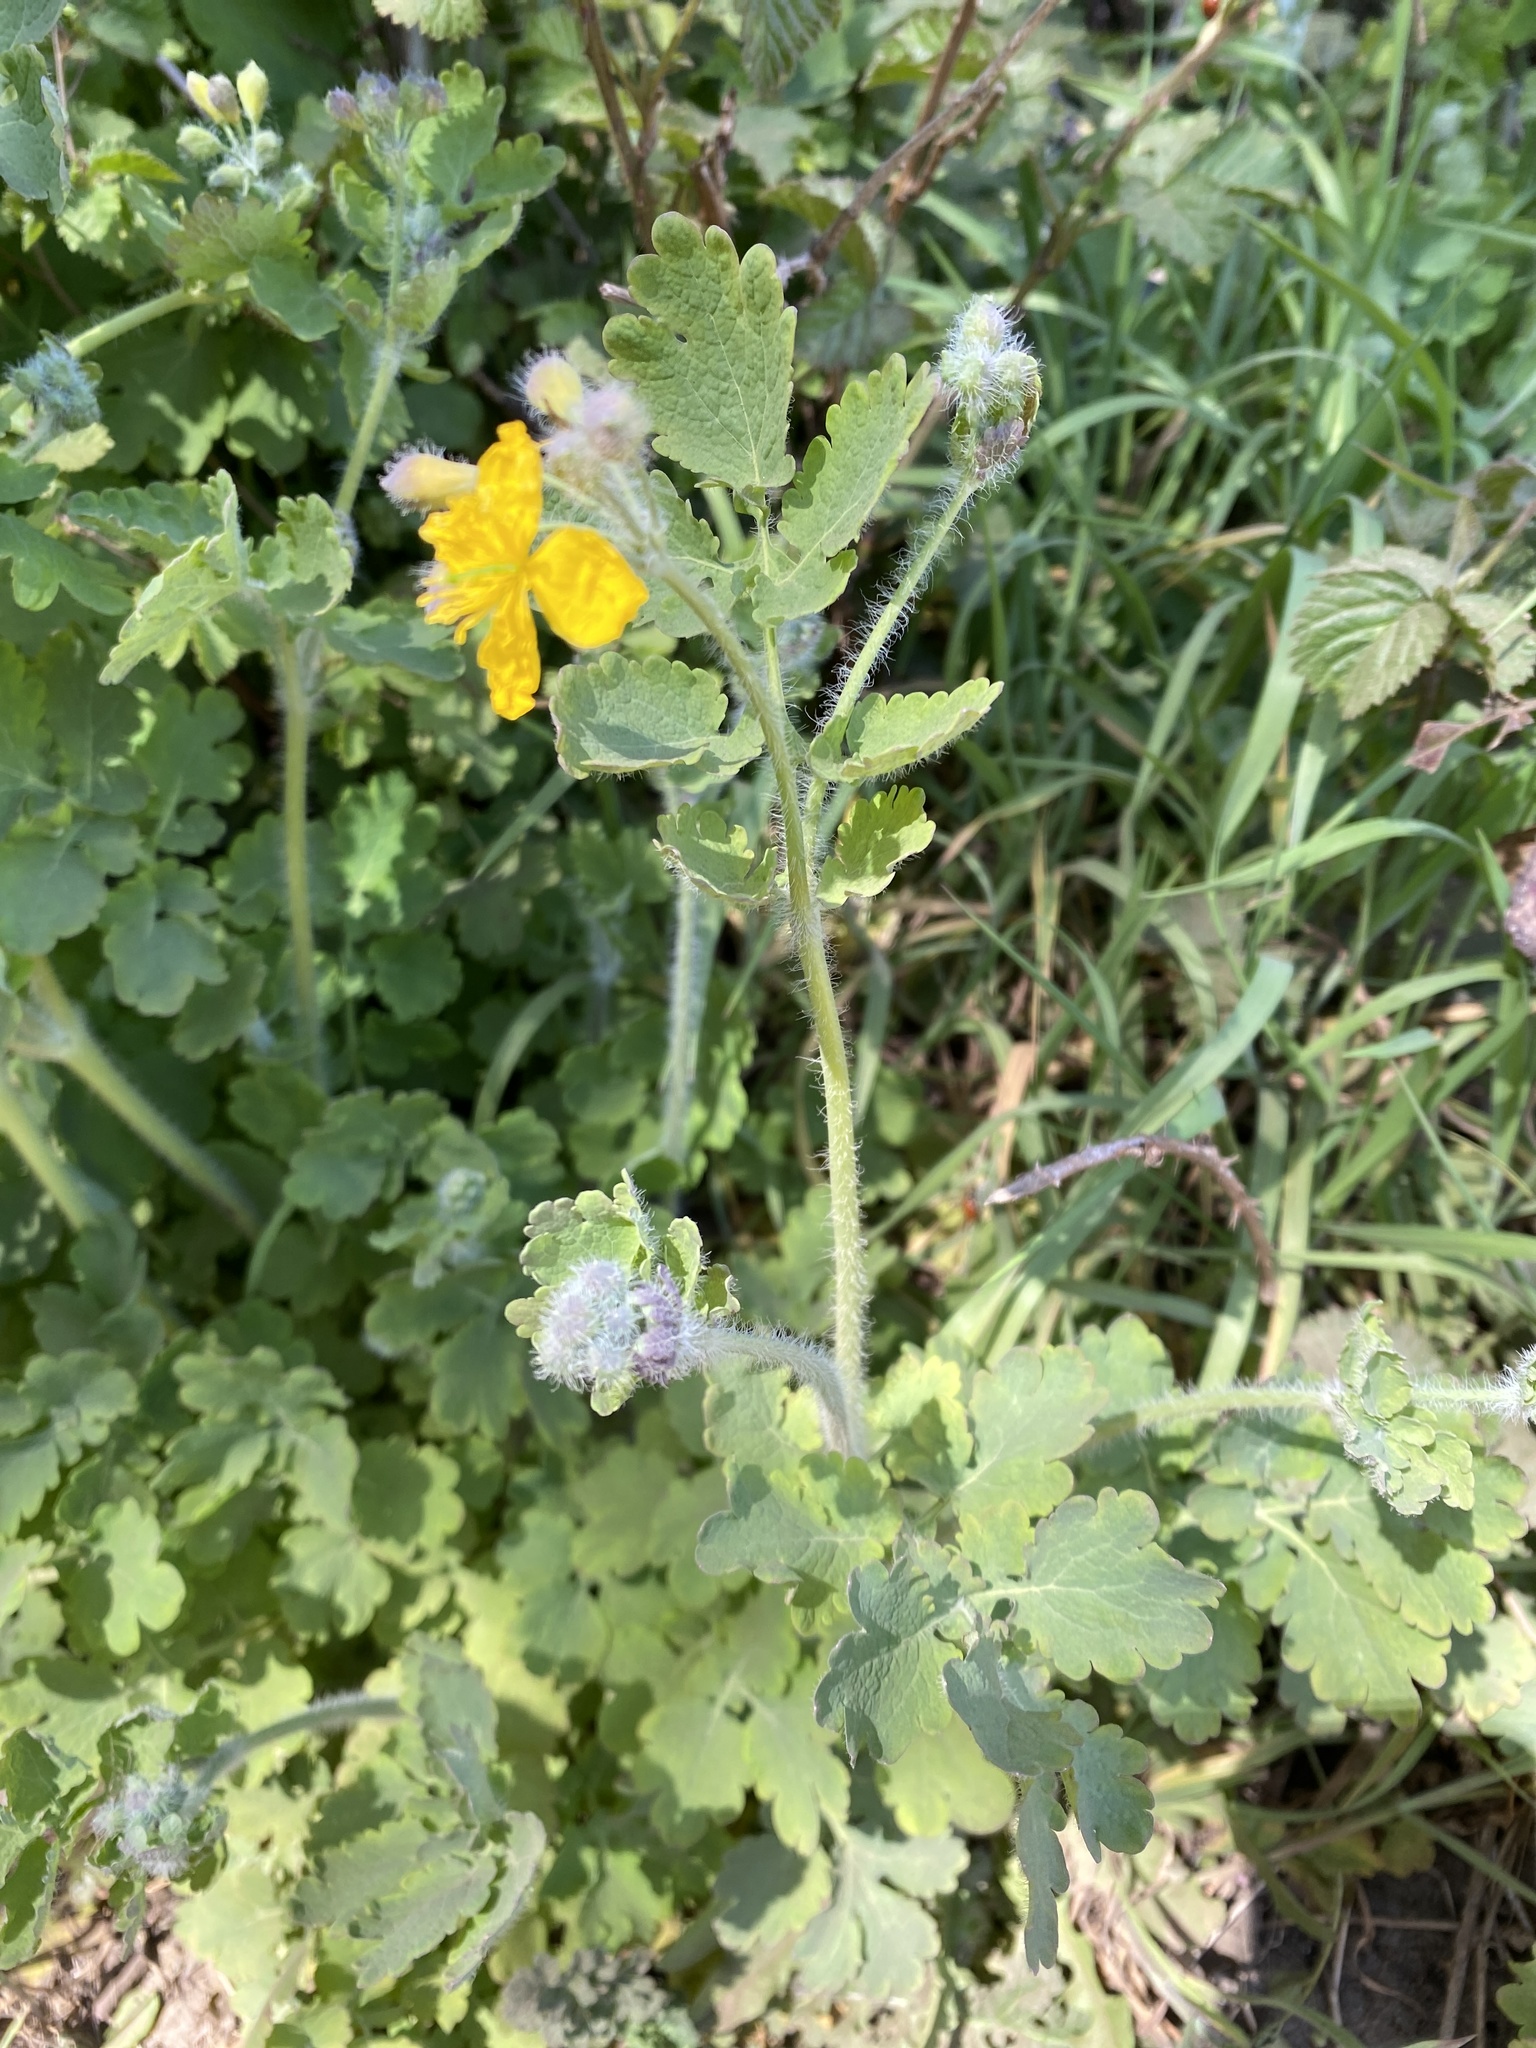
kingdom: Plantae
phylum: Tracheophyta
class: Magnoliopsida
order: Ranunculales
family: Papaveraceae
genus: Chelidonium
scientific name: Chelidonium majus
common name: Greater celandine
